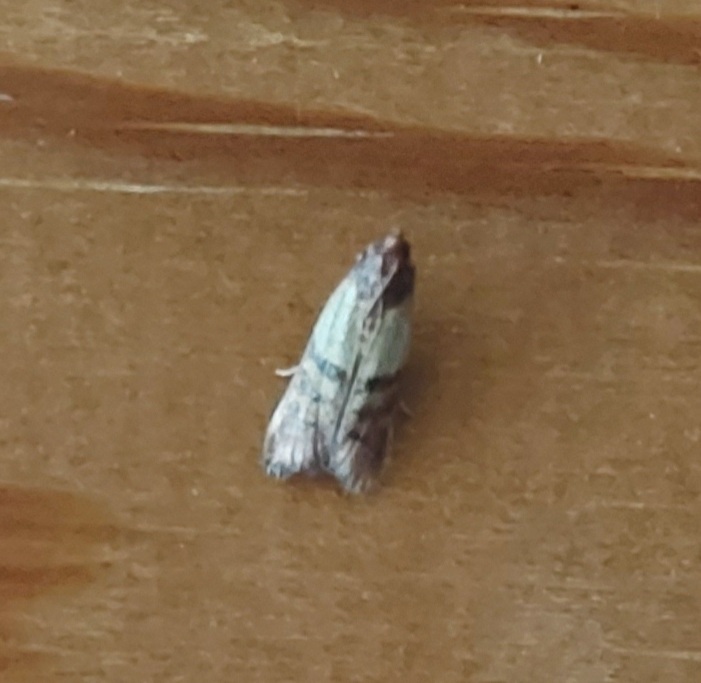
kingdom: Animalia
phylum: Arthropoda
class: Insecta
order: Lepidoptera
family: Pyralidae
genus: Plodia
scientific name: Plodia interpunctella
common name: Indian meal moth
